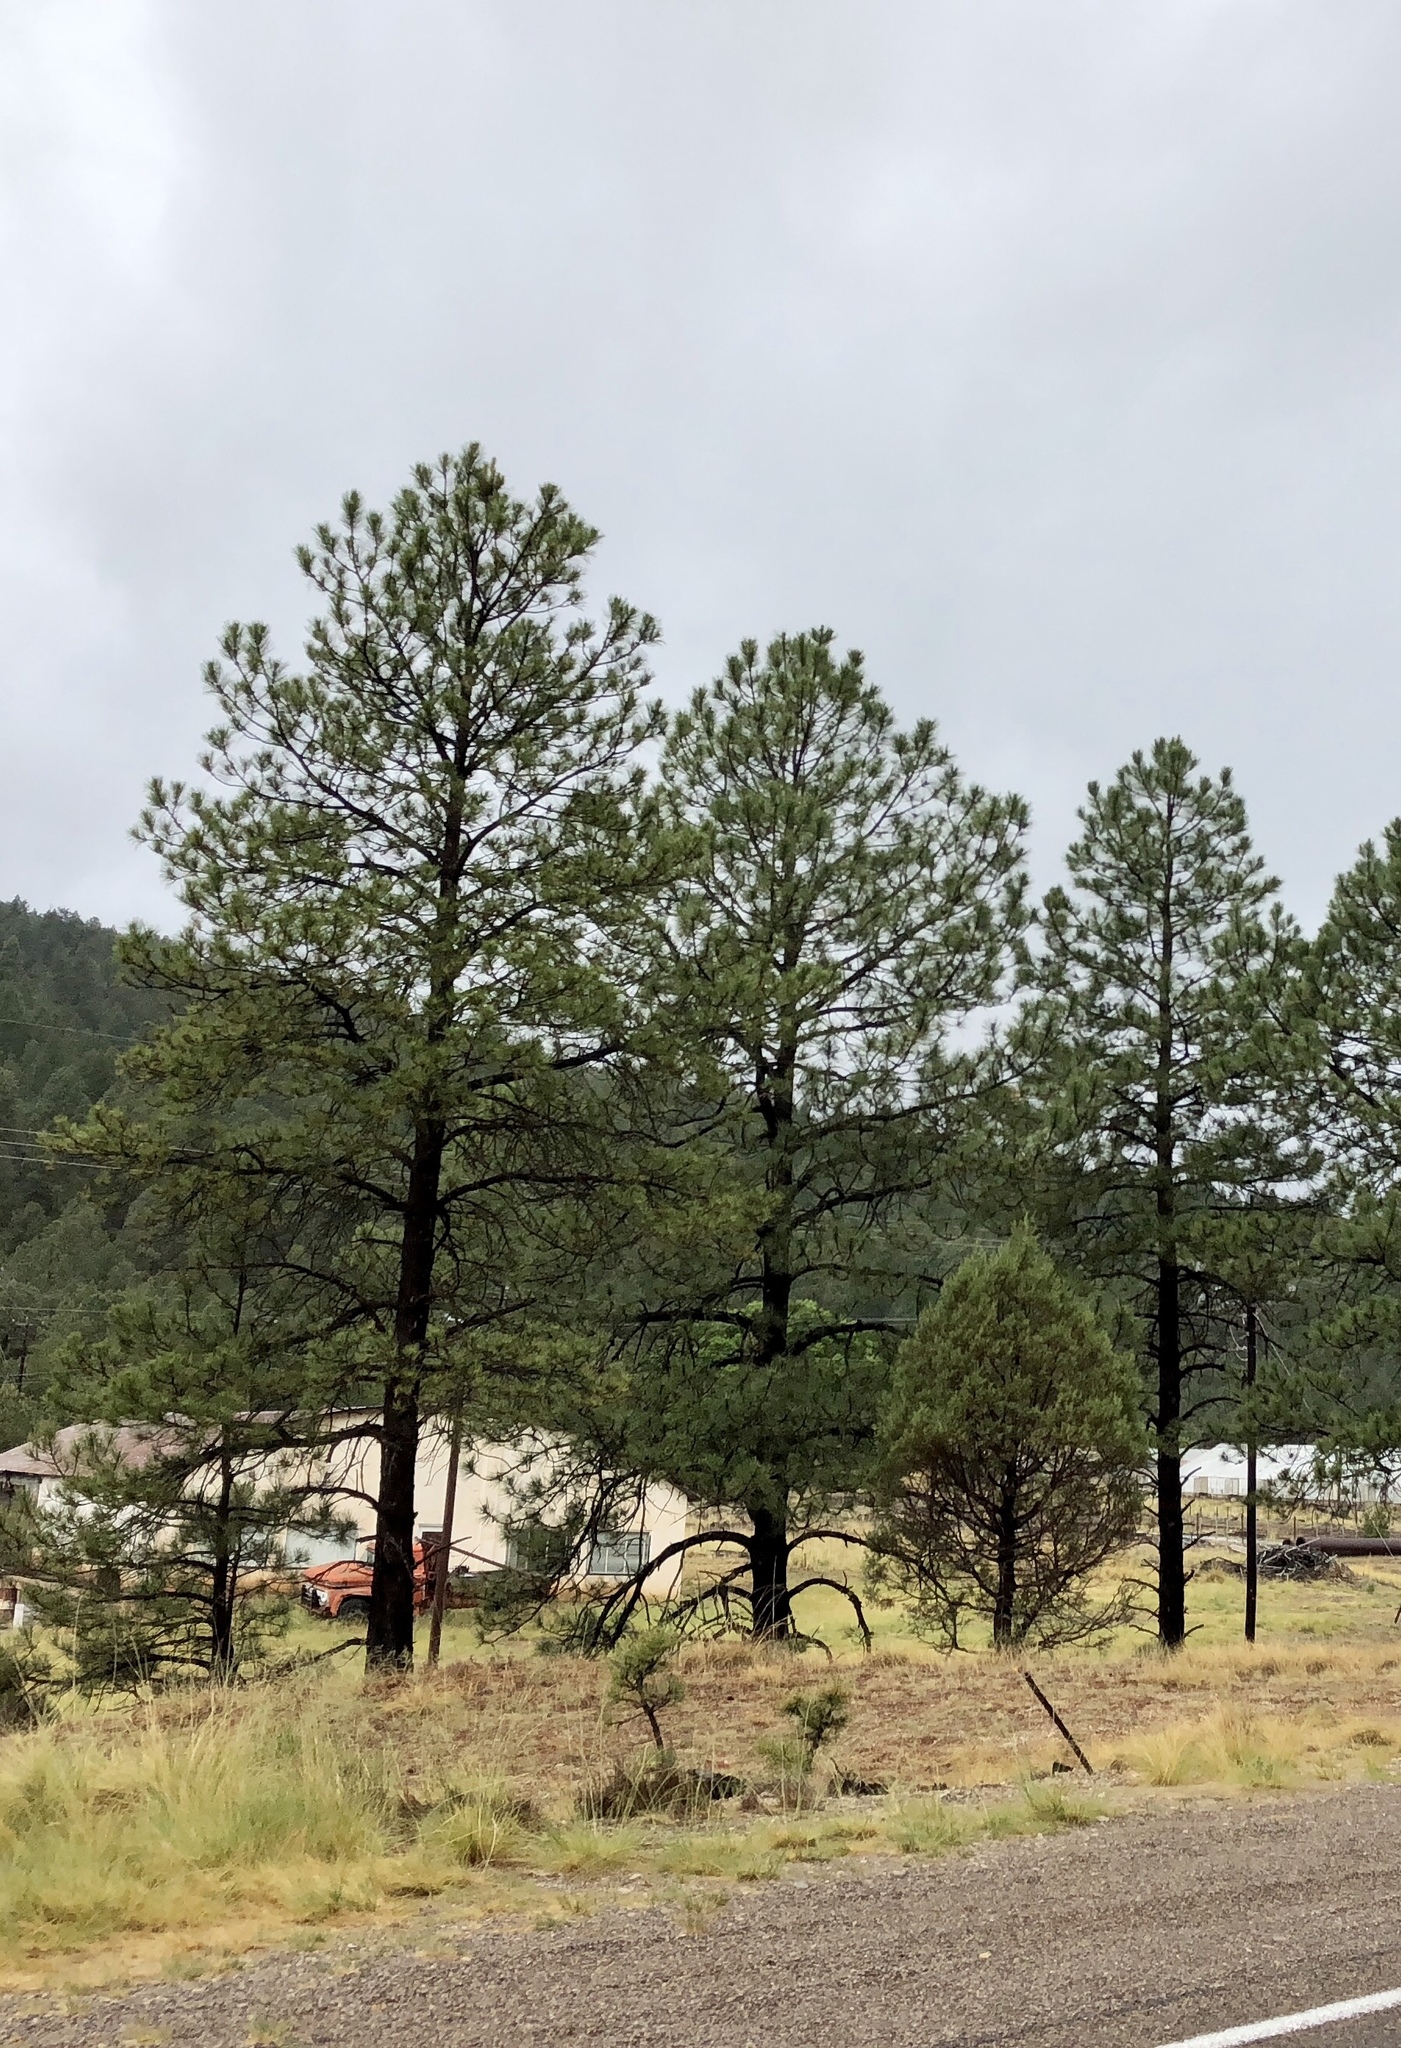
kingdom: Plantae
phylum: Tracheophyta
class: Pinopsida
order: Pinales
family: Pinaceae
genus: Pinus
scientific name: Pinus ponderosa
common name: Western yellow-pine
